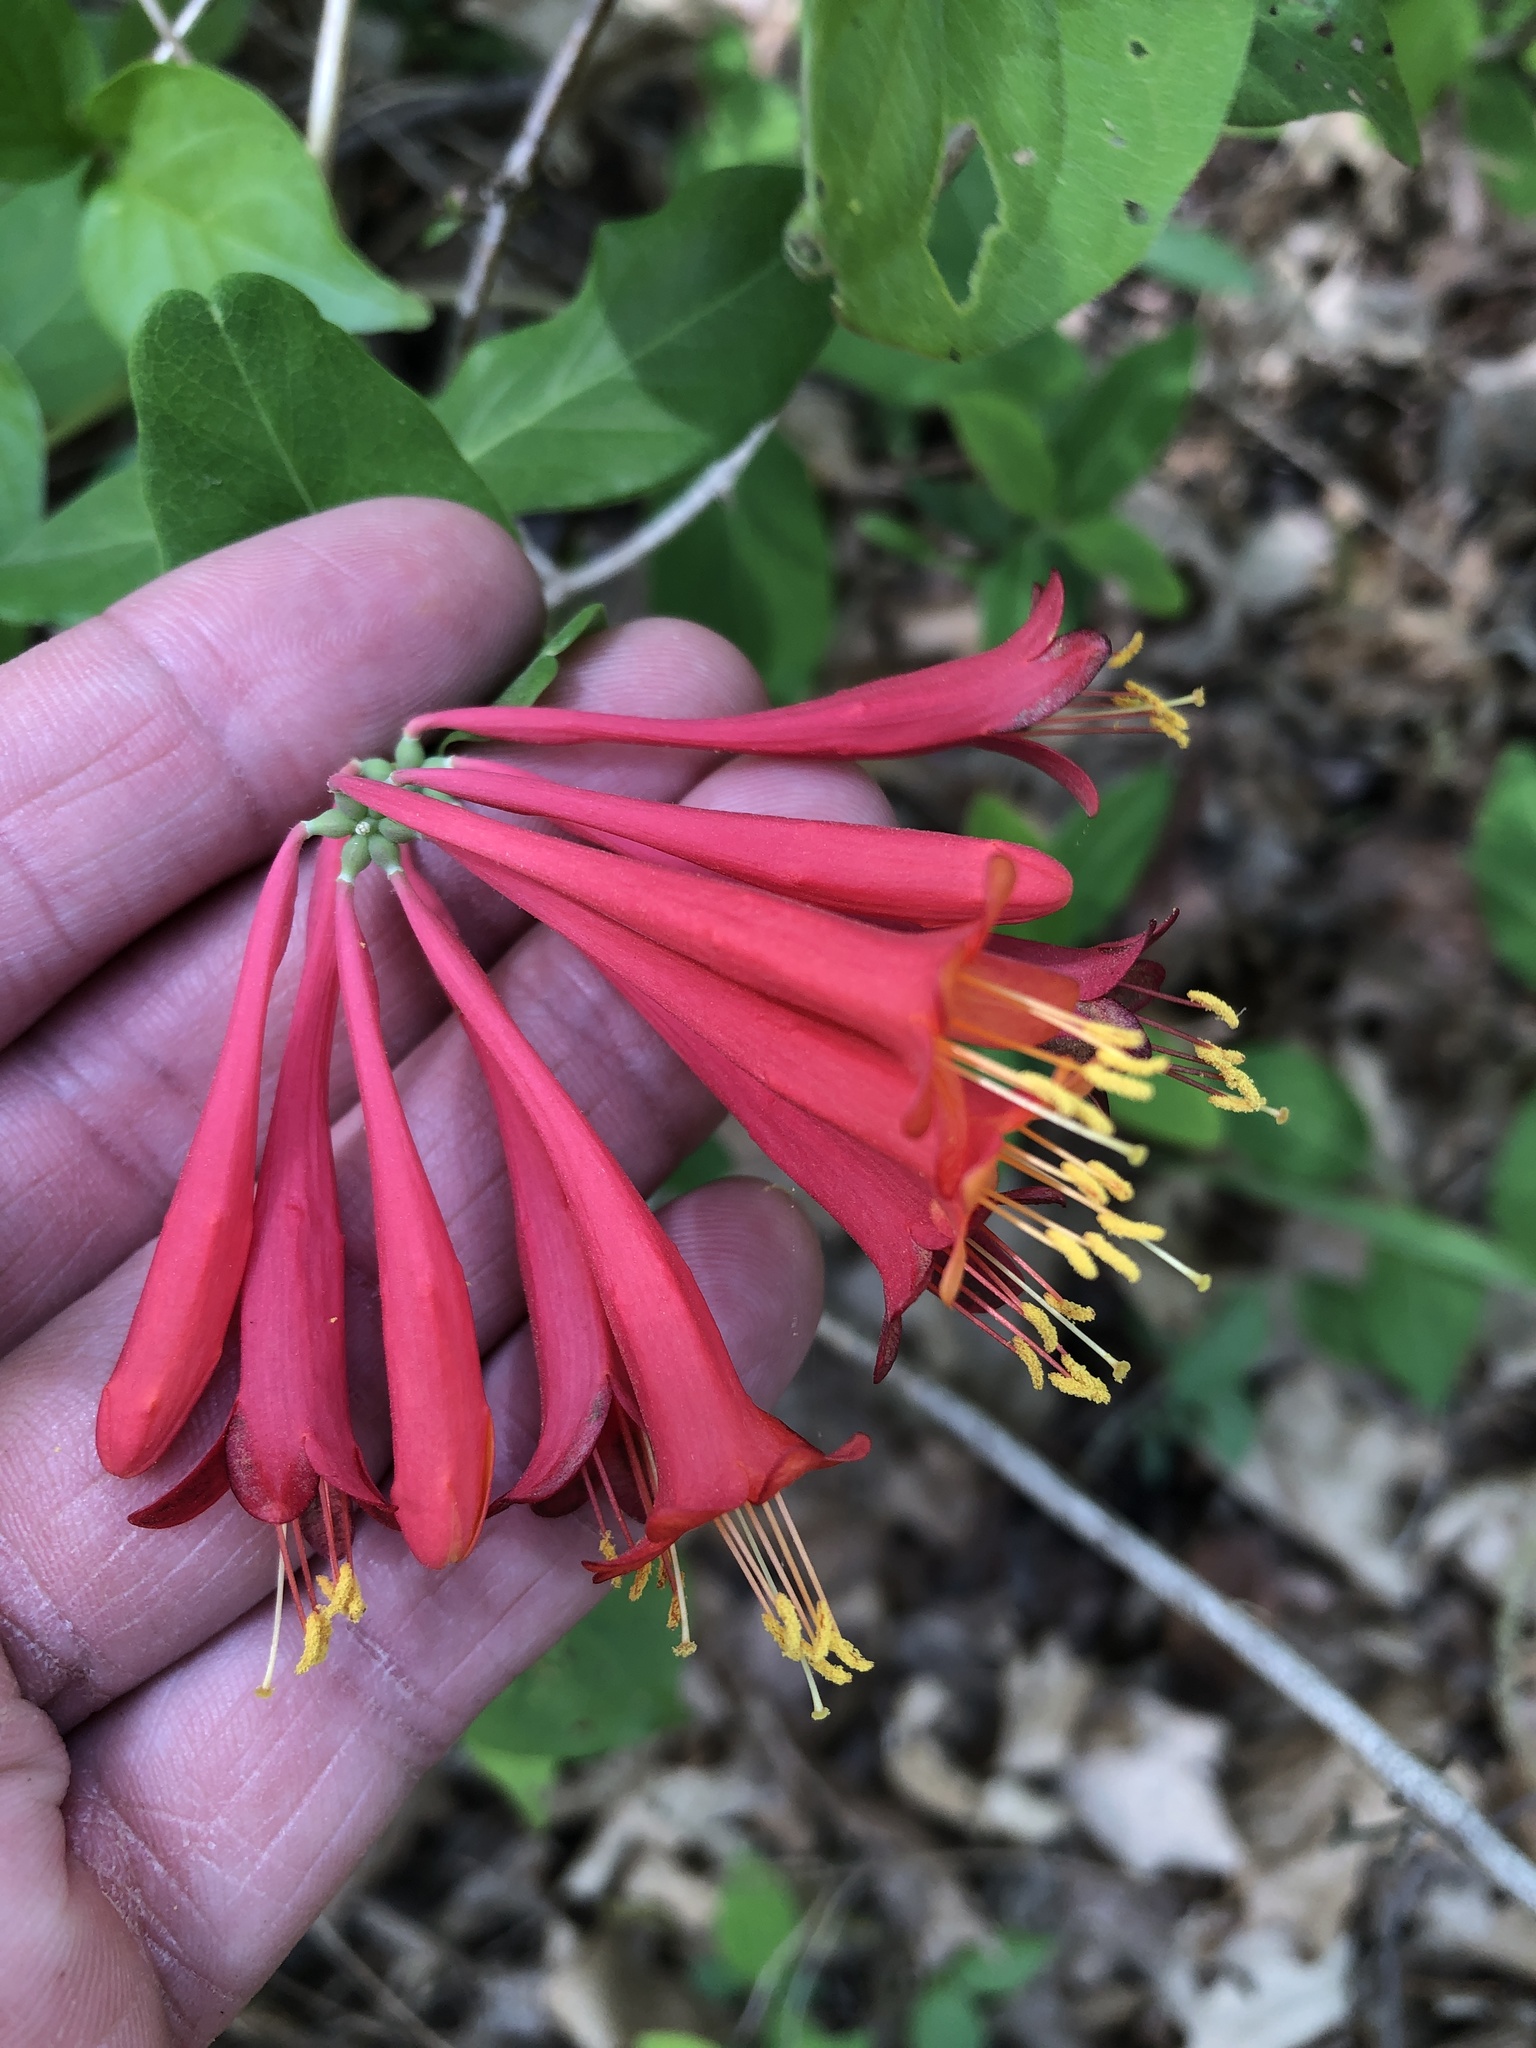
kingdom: Plantae
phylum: Tracheophyta
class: Magnoliopsida
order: Dipsacales
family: Caprifoliaceae
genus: Lonicera
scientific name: Lonicera sempervirens
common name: Coral honeysuckle
